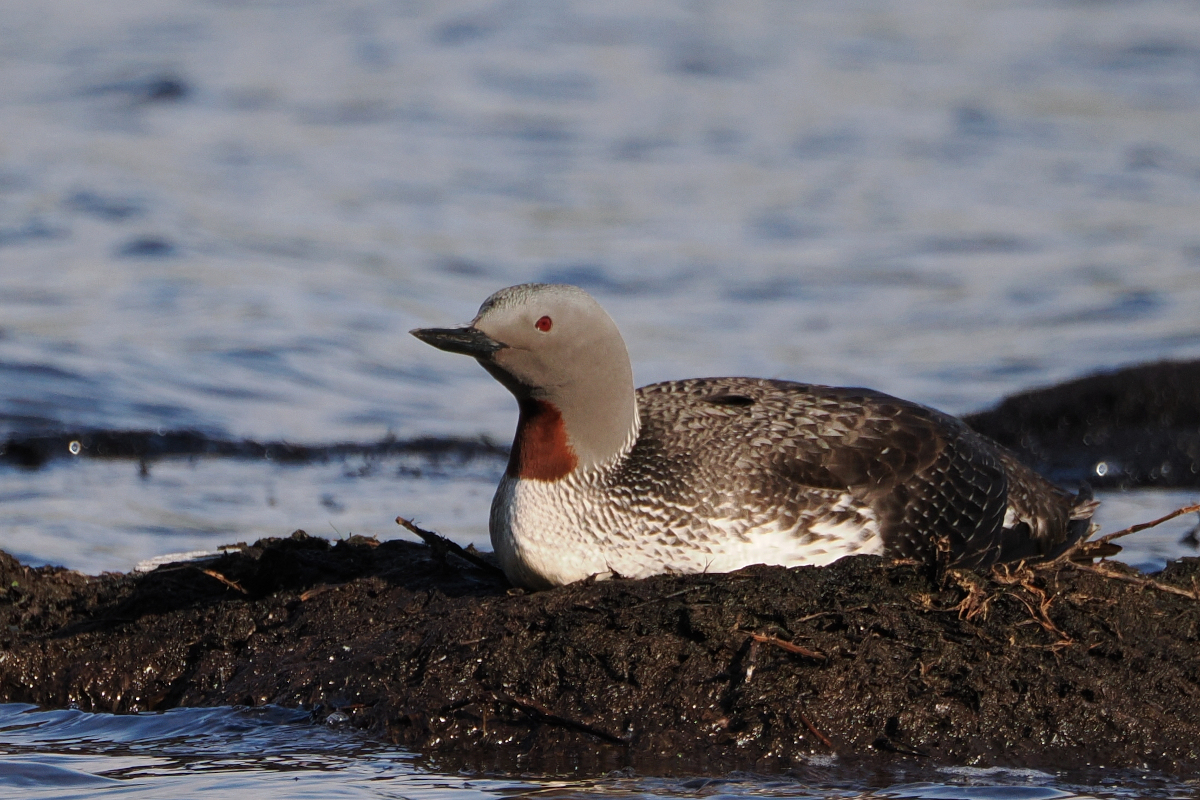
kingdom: Animalia
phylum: Chordata
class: Aves
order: Gaviiformes
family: Gaviidae
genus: Gavia
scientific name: Gavia stellata
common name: Red-throated loon
